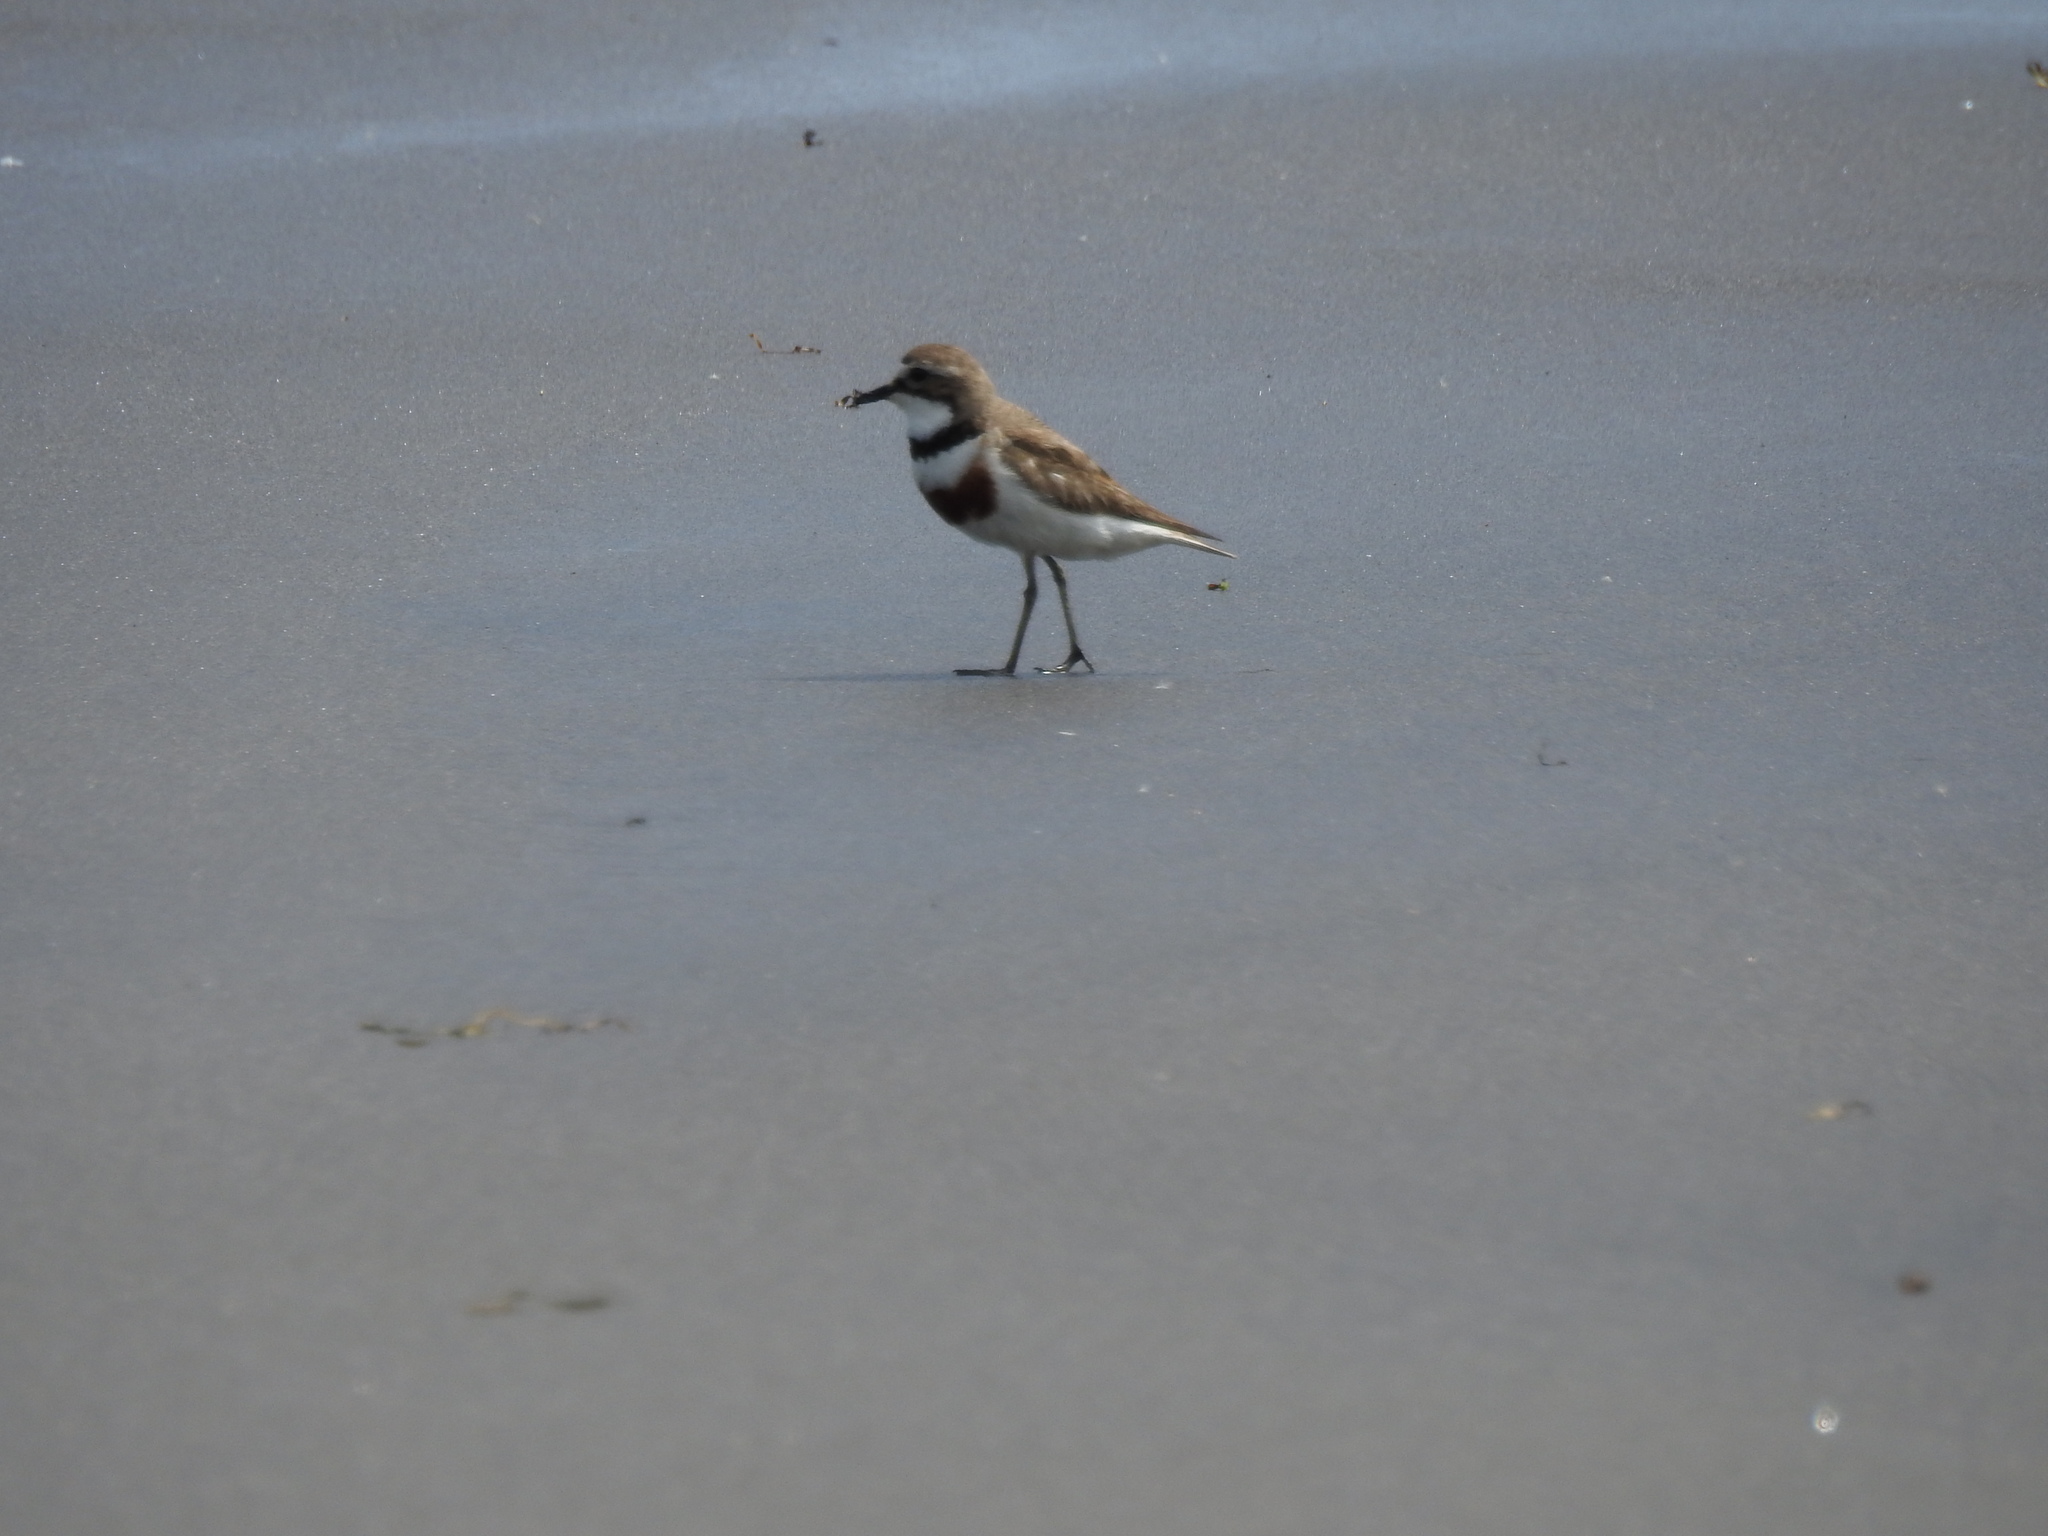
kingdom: Animalia
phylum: Chordata
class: Aves
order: Charadriiformes
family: Charadriidae
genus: Anarhynchus
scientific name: Anarhynchus
